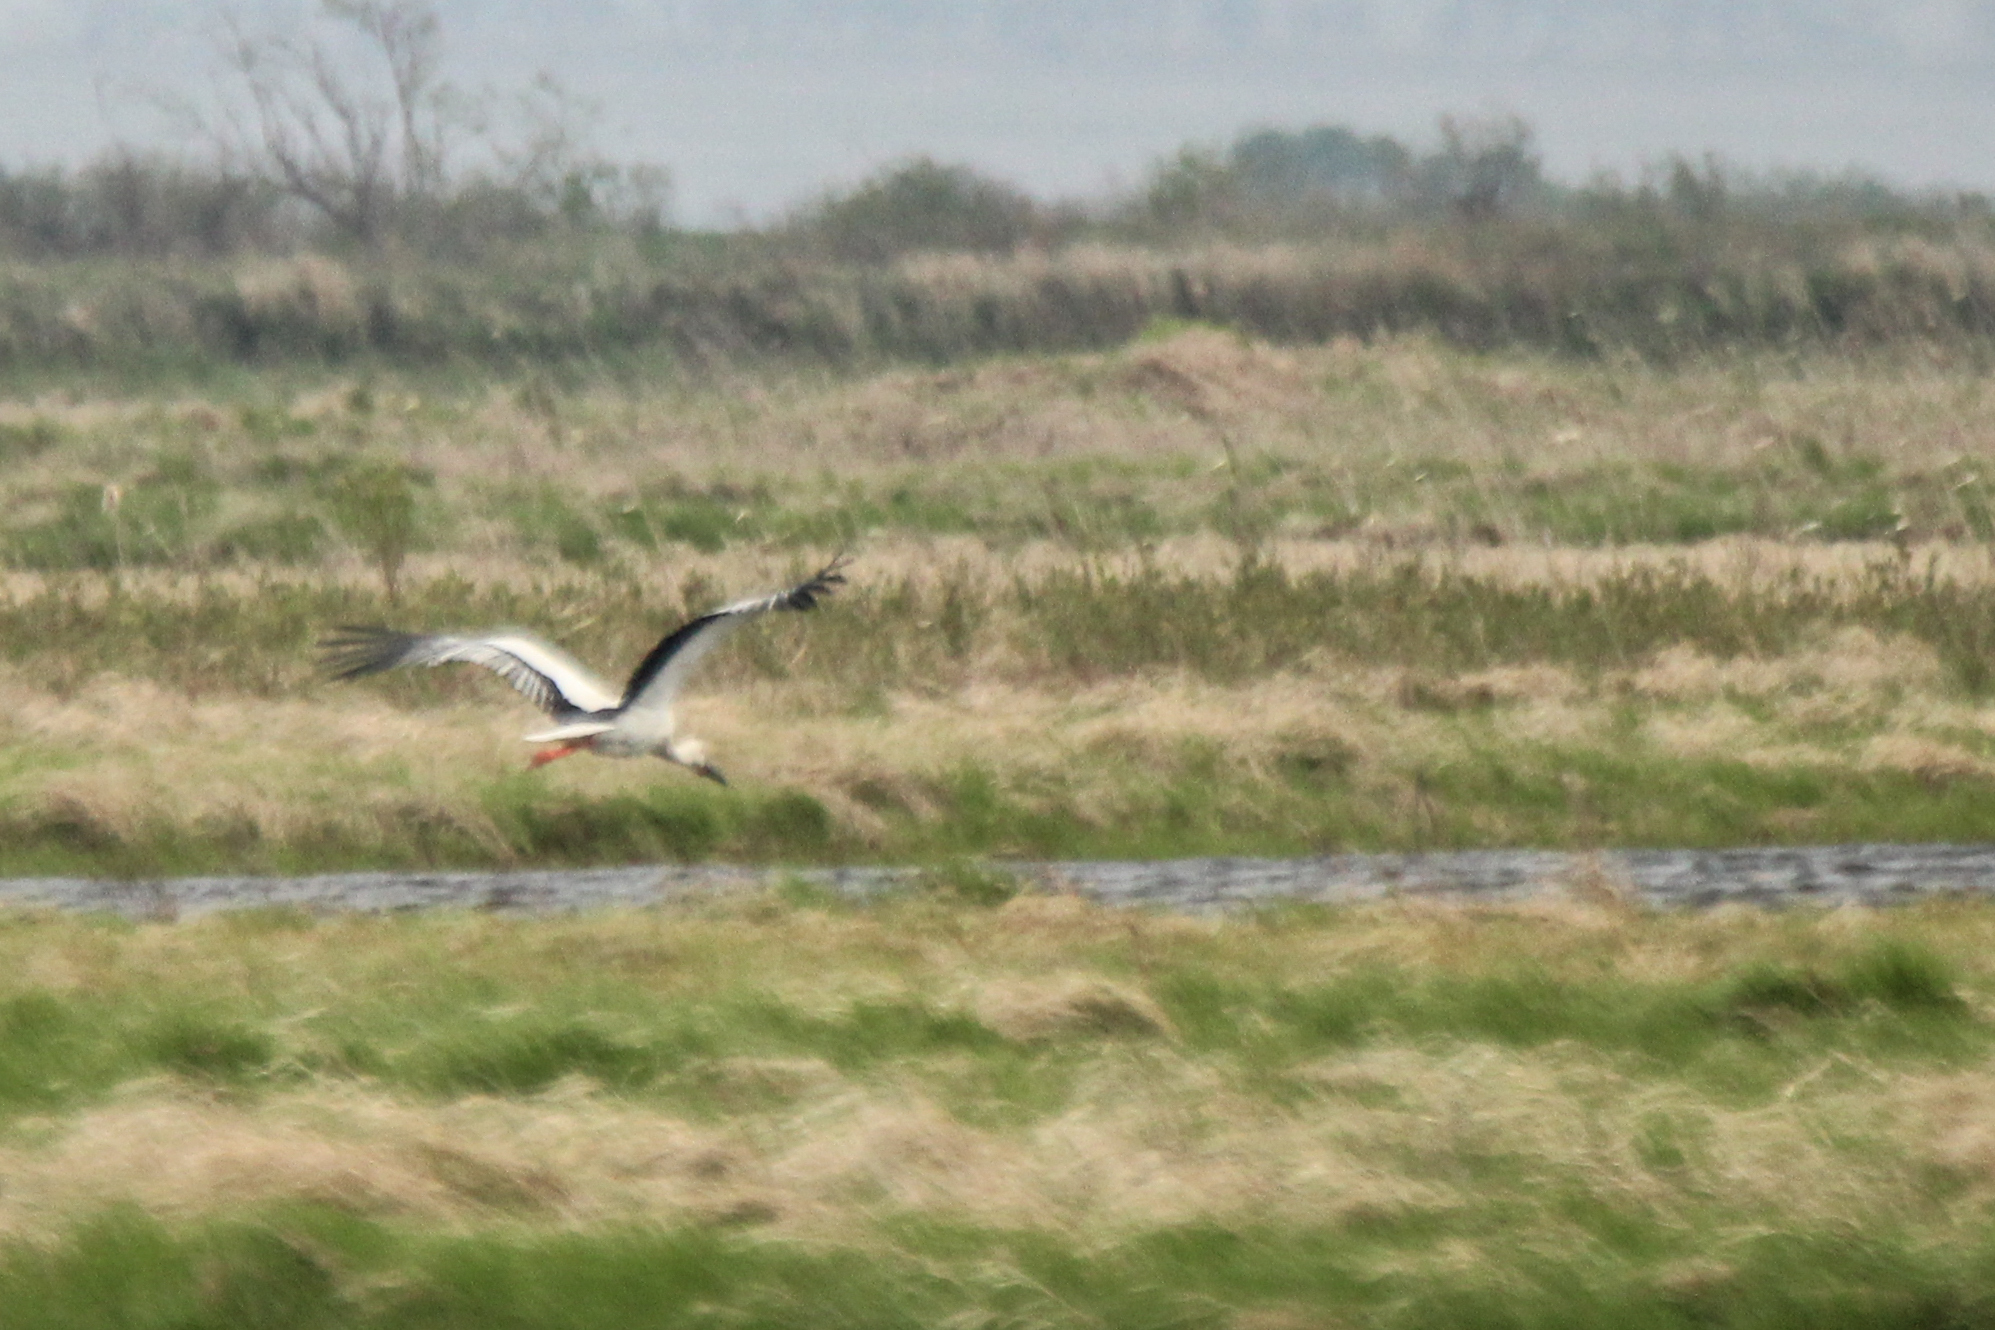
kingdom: Animalia
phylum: Chordata
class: Aves
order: Ciconiiformes
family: Ciconiidae
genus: Ciconia
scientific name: Ciconia boyciana
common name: Oriental stork
